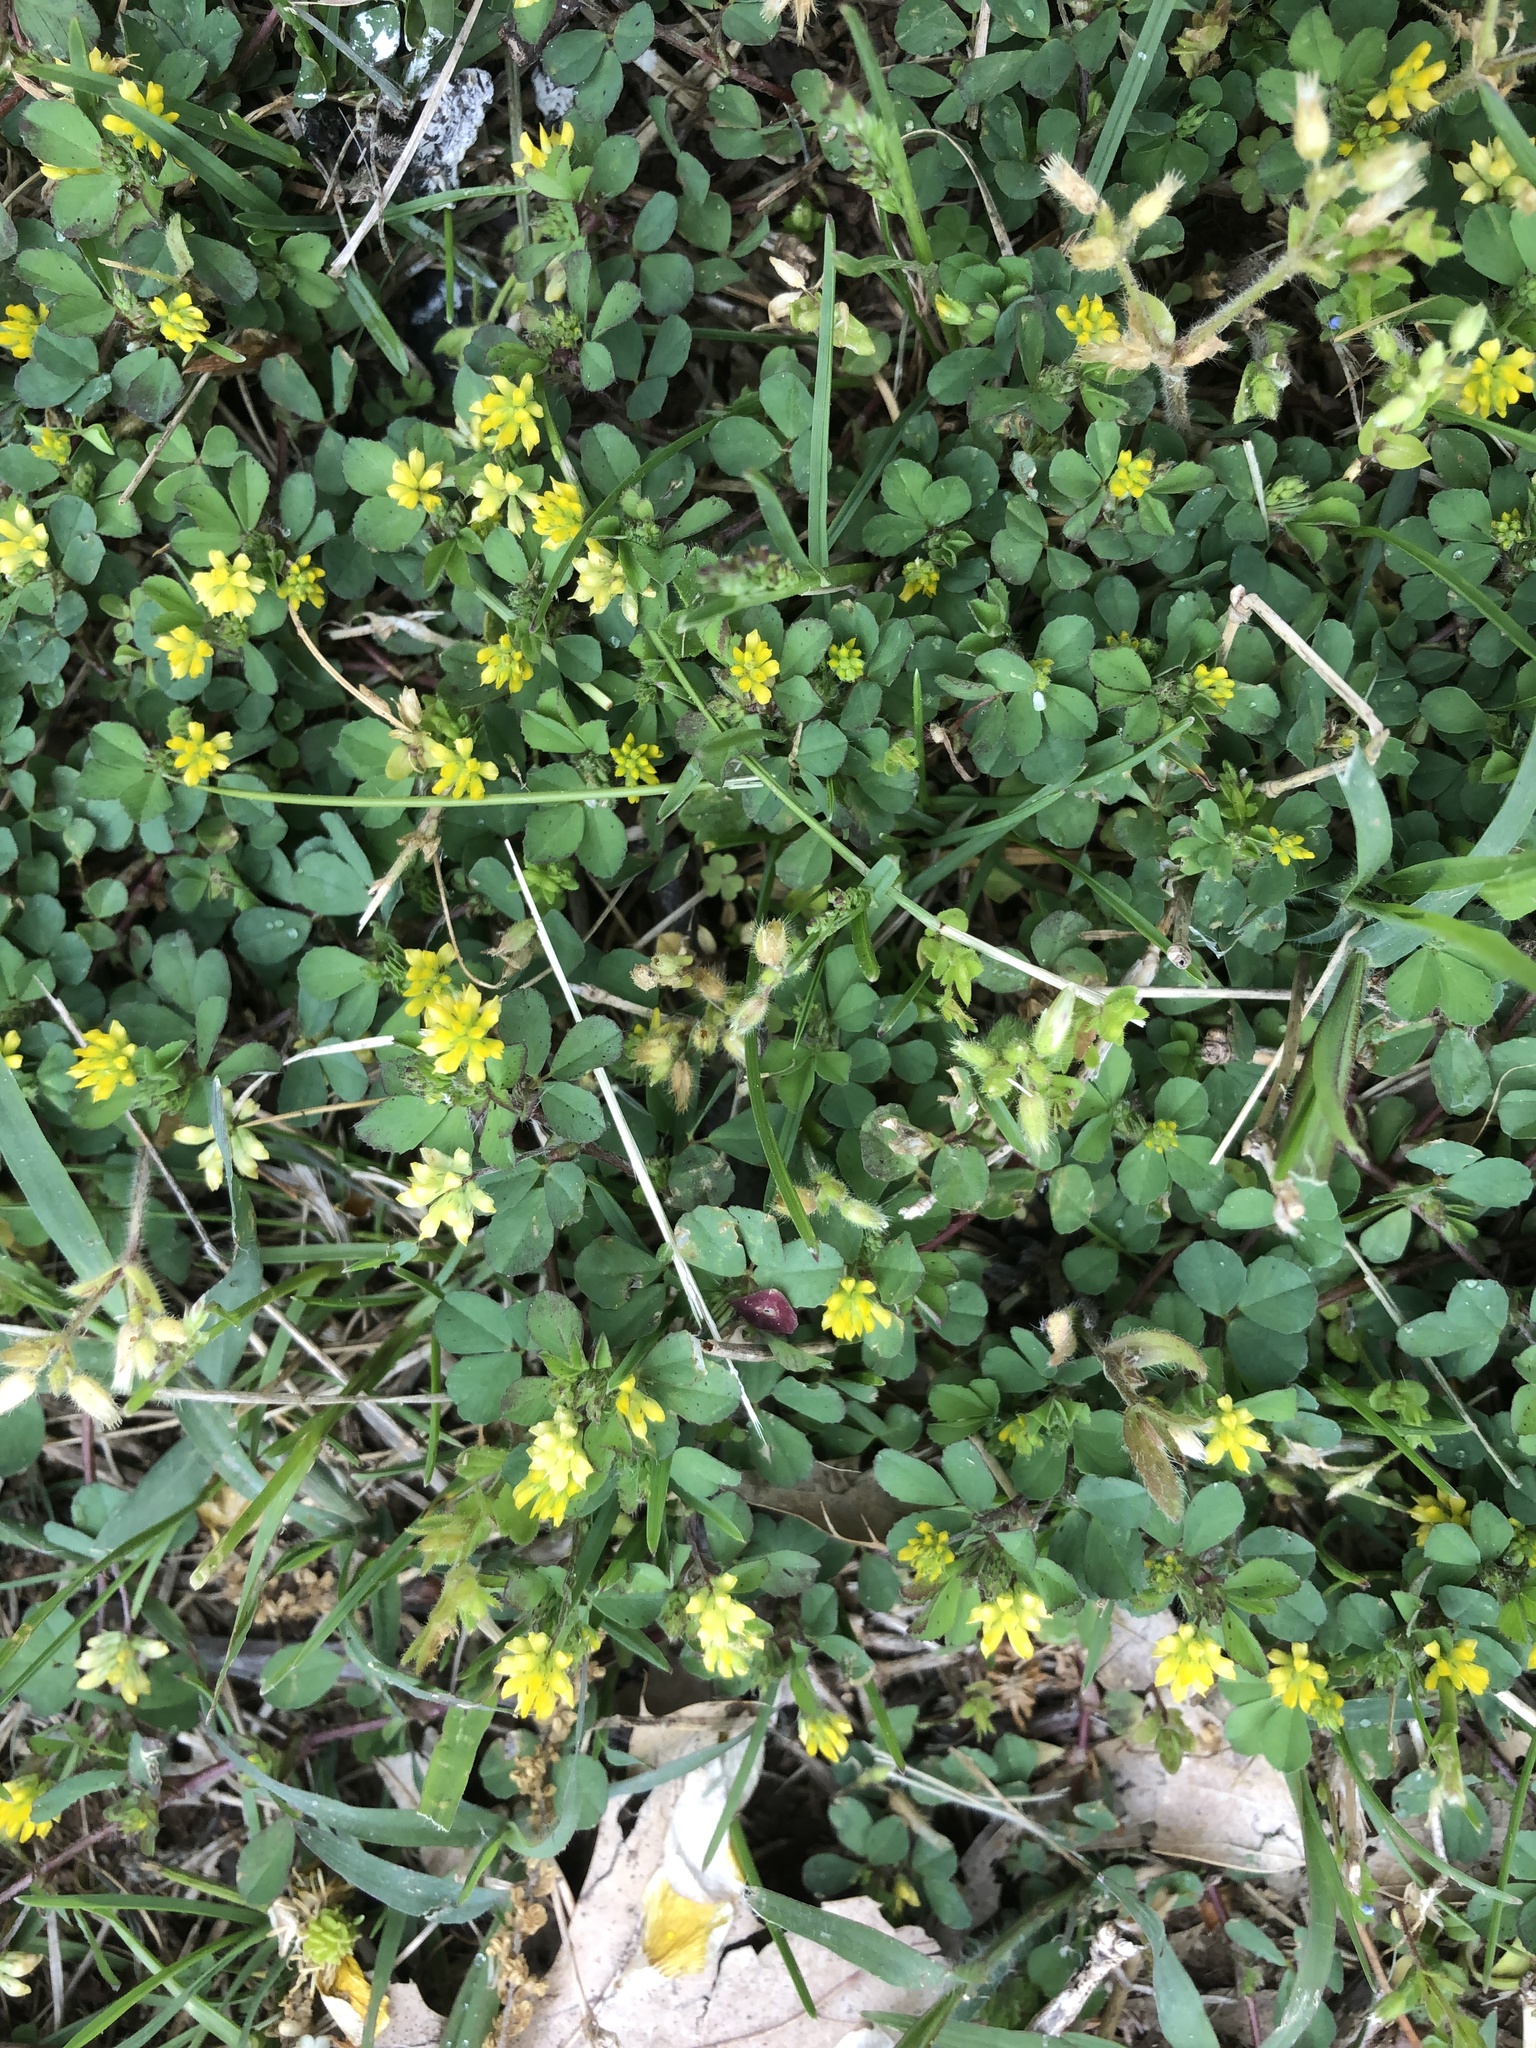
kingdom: Plantae
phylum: Tracheophyta
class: Magnoliopsida
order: Fabales
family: Fabaceae
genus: Trifolium
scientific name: Trifolium dubium
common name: Suckling clover
